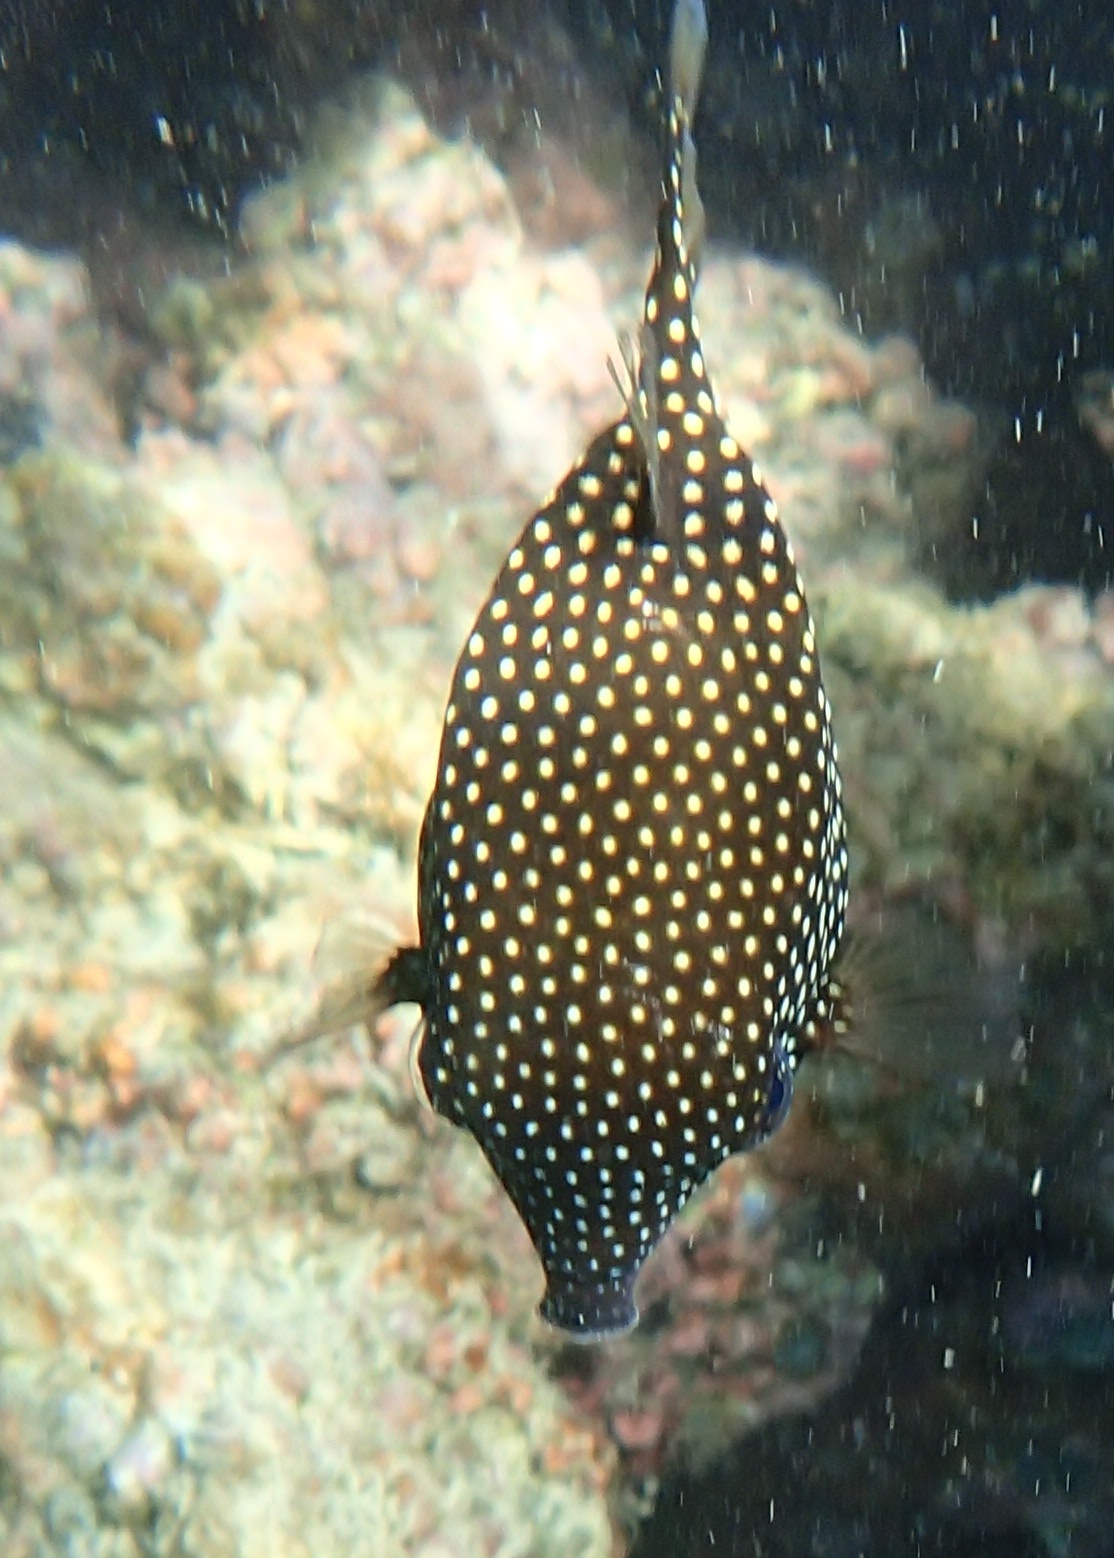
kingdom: Animalia
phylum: Chordata
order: Tetraodontiformes
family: Ostraciidae
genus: Ostracion
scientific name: Ostracion meleagris
